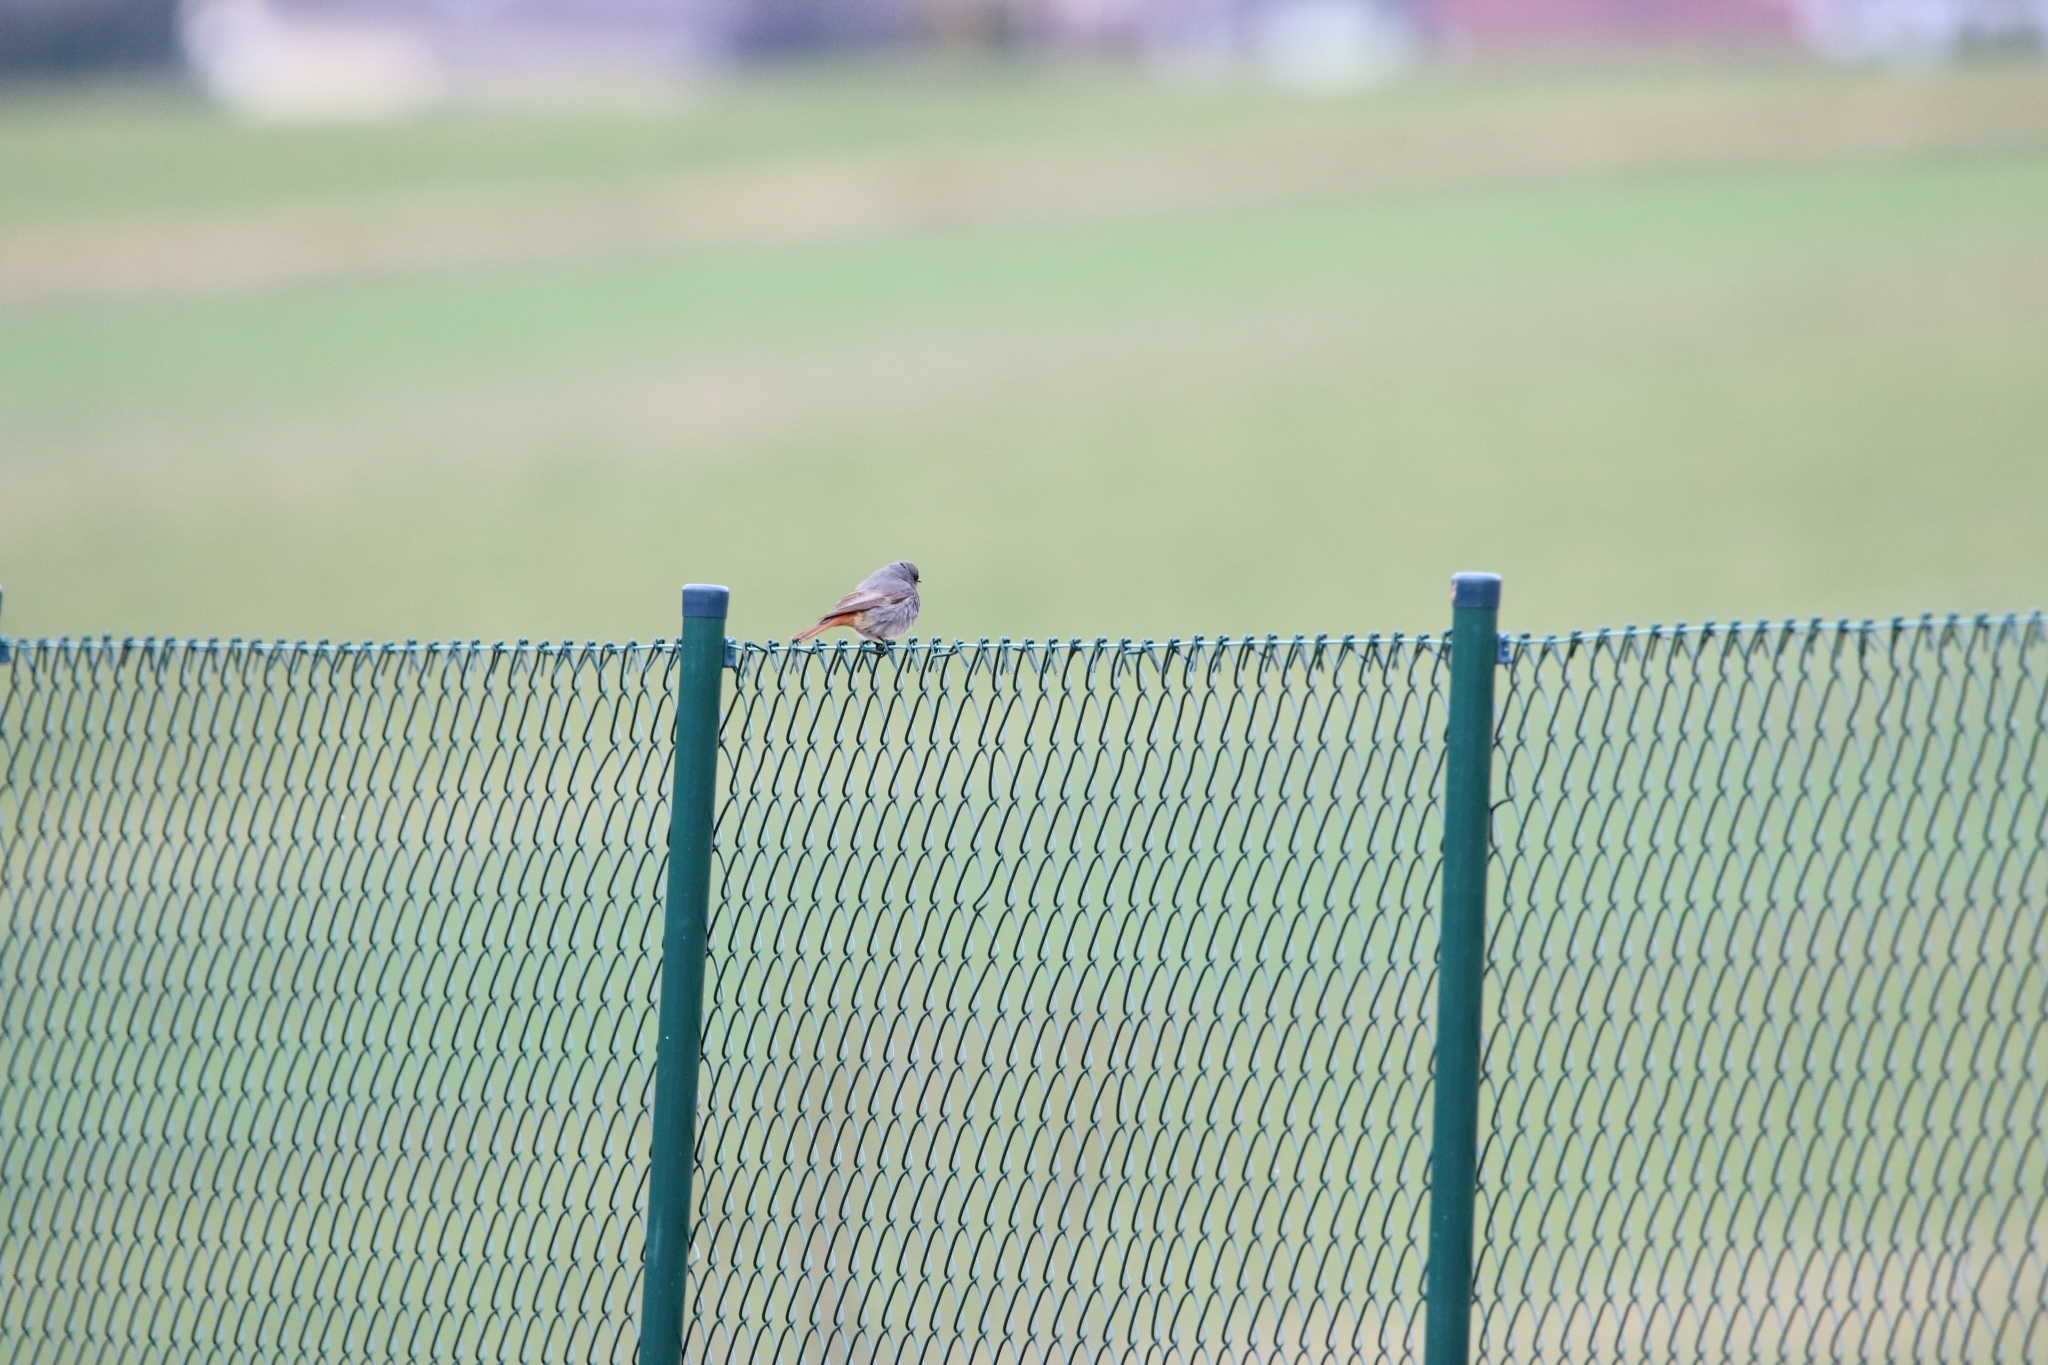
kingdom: Animalia
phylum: Chordata
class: Aves
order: Passeriformes
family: Muscicapidae
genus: Phoenicurus
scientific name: Phoenicurus ochruros
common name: Black redstart
